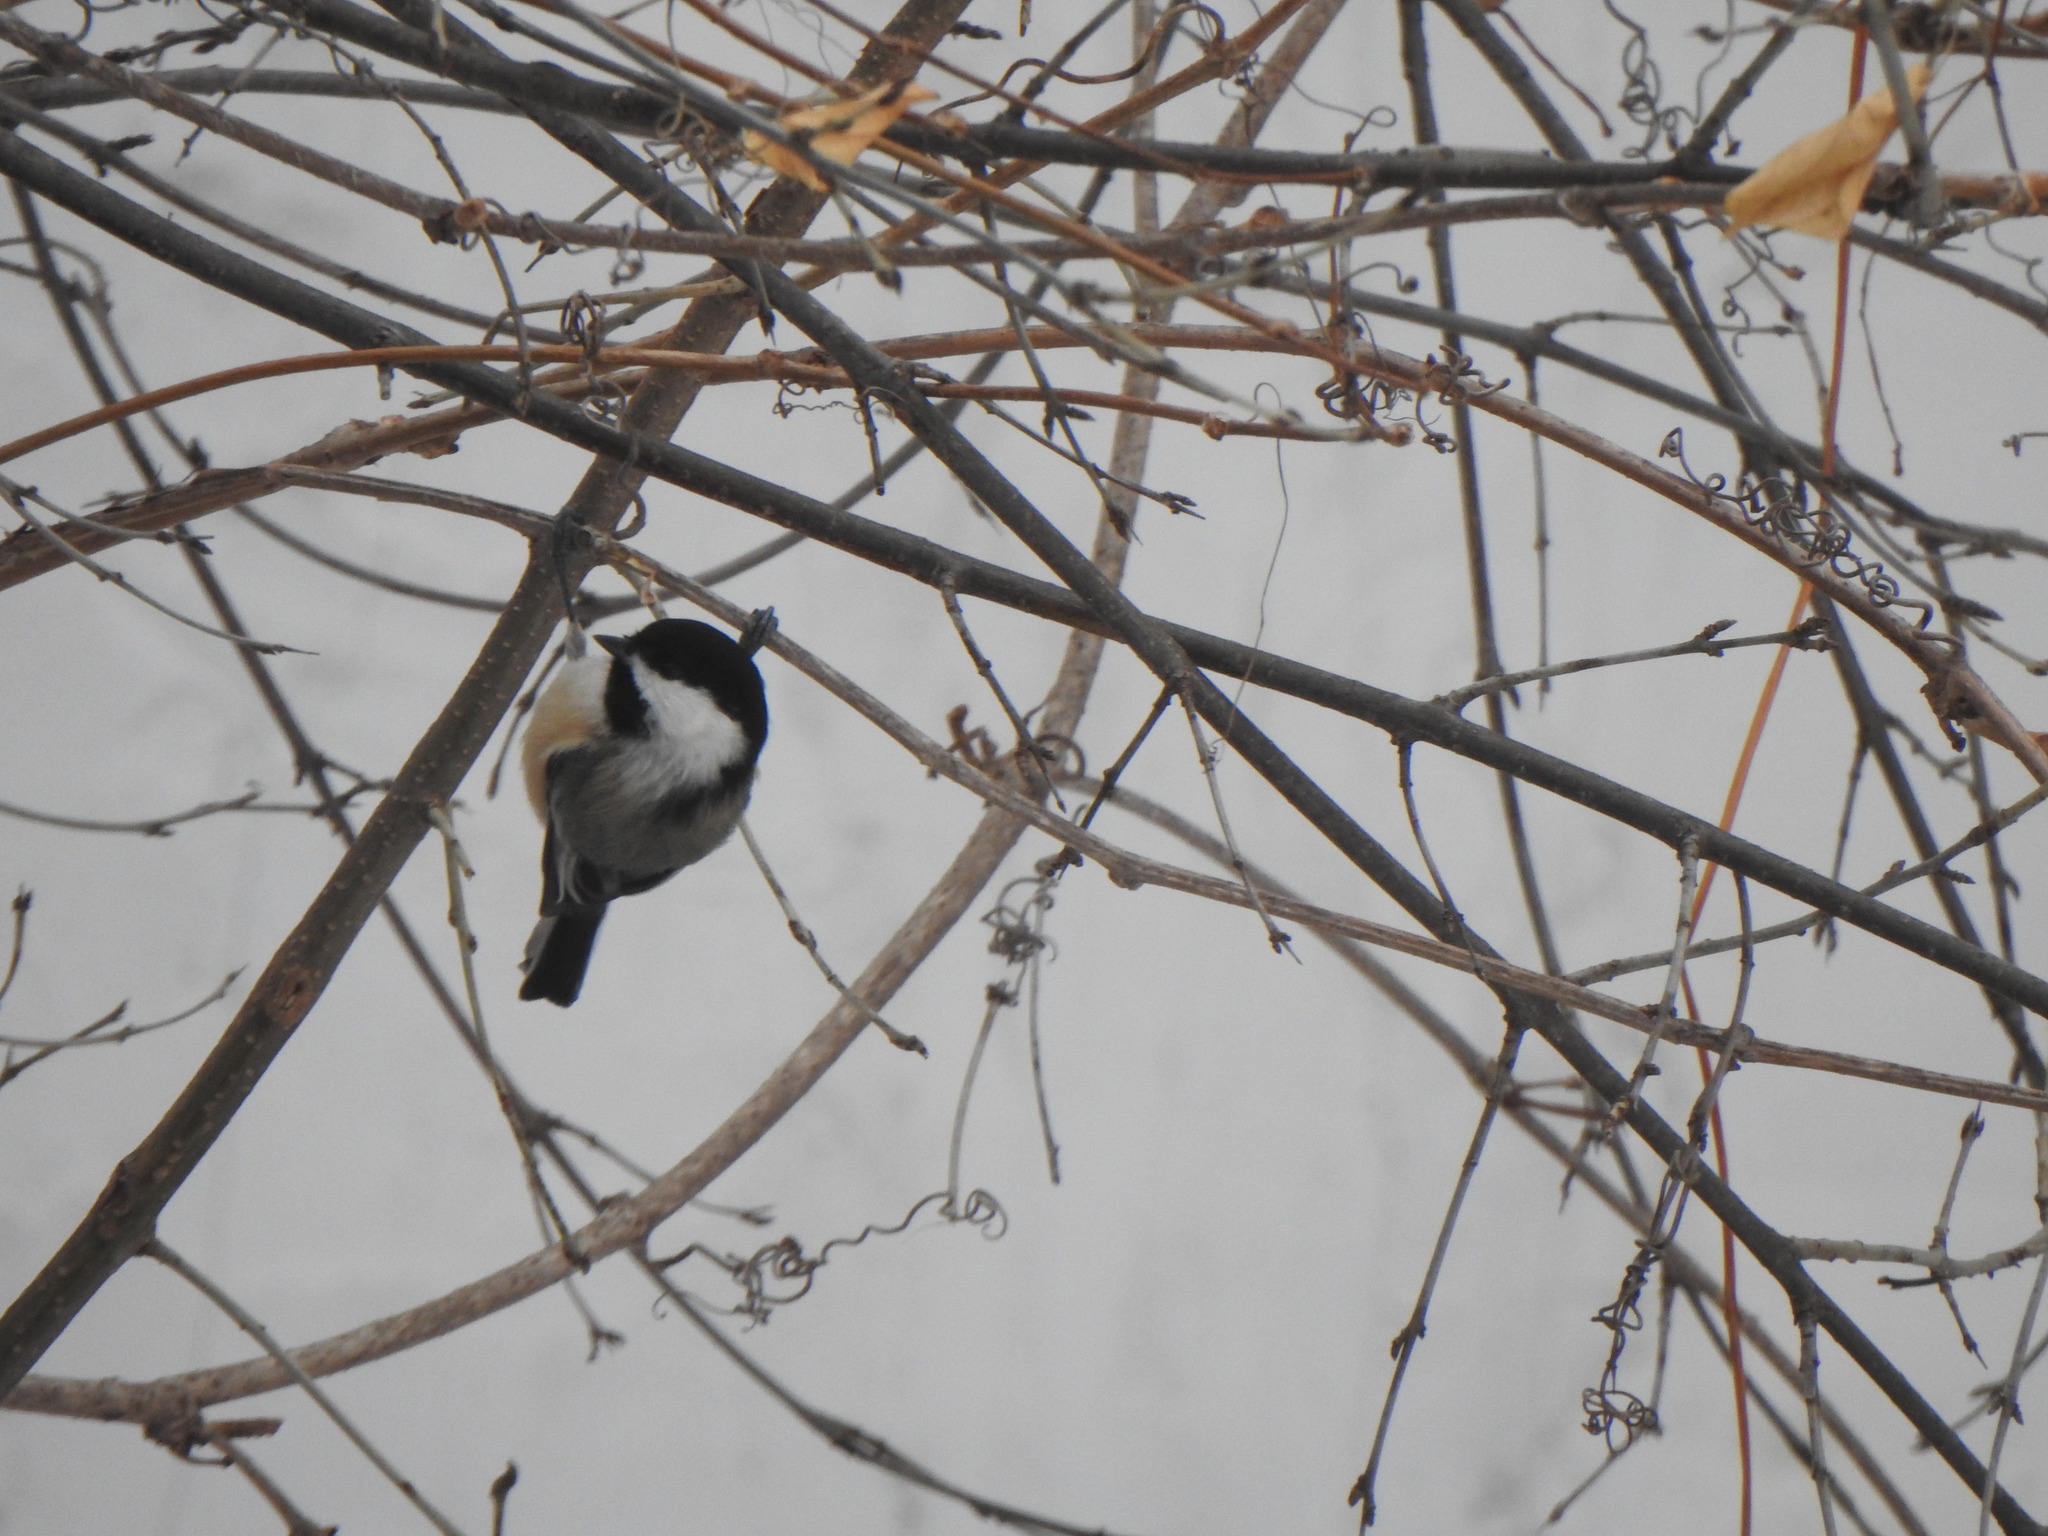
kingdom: Animalia
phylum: Chordata
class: Aves
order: Passeriformes
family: Paridae
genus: Poecile
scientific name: Poecile atricapillus
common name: Black-capped chickadee
